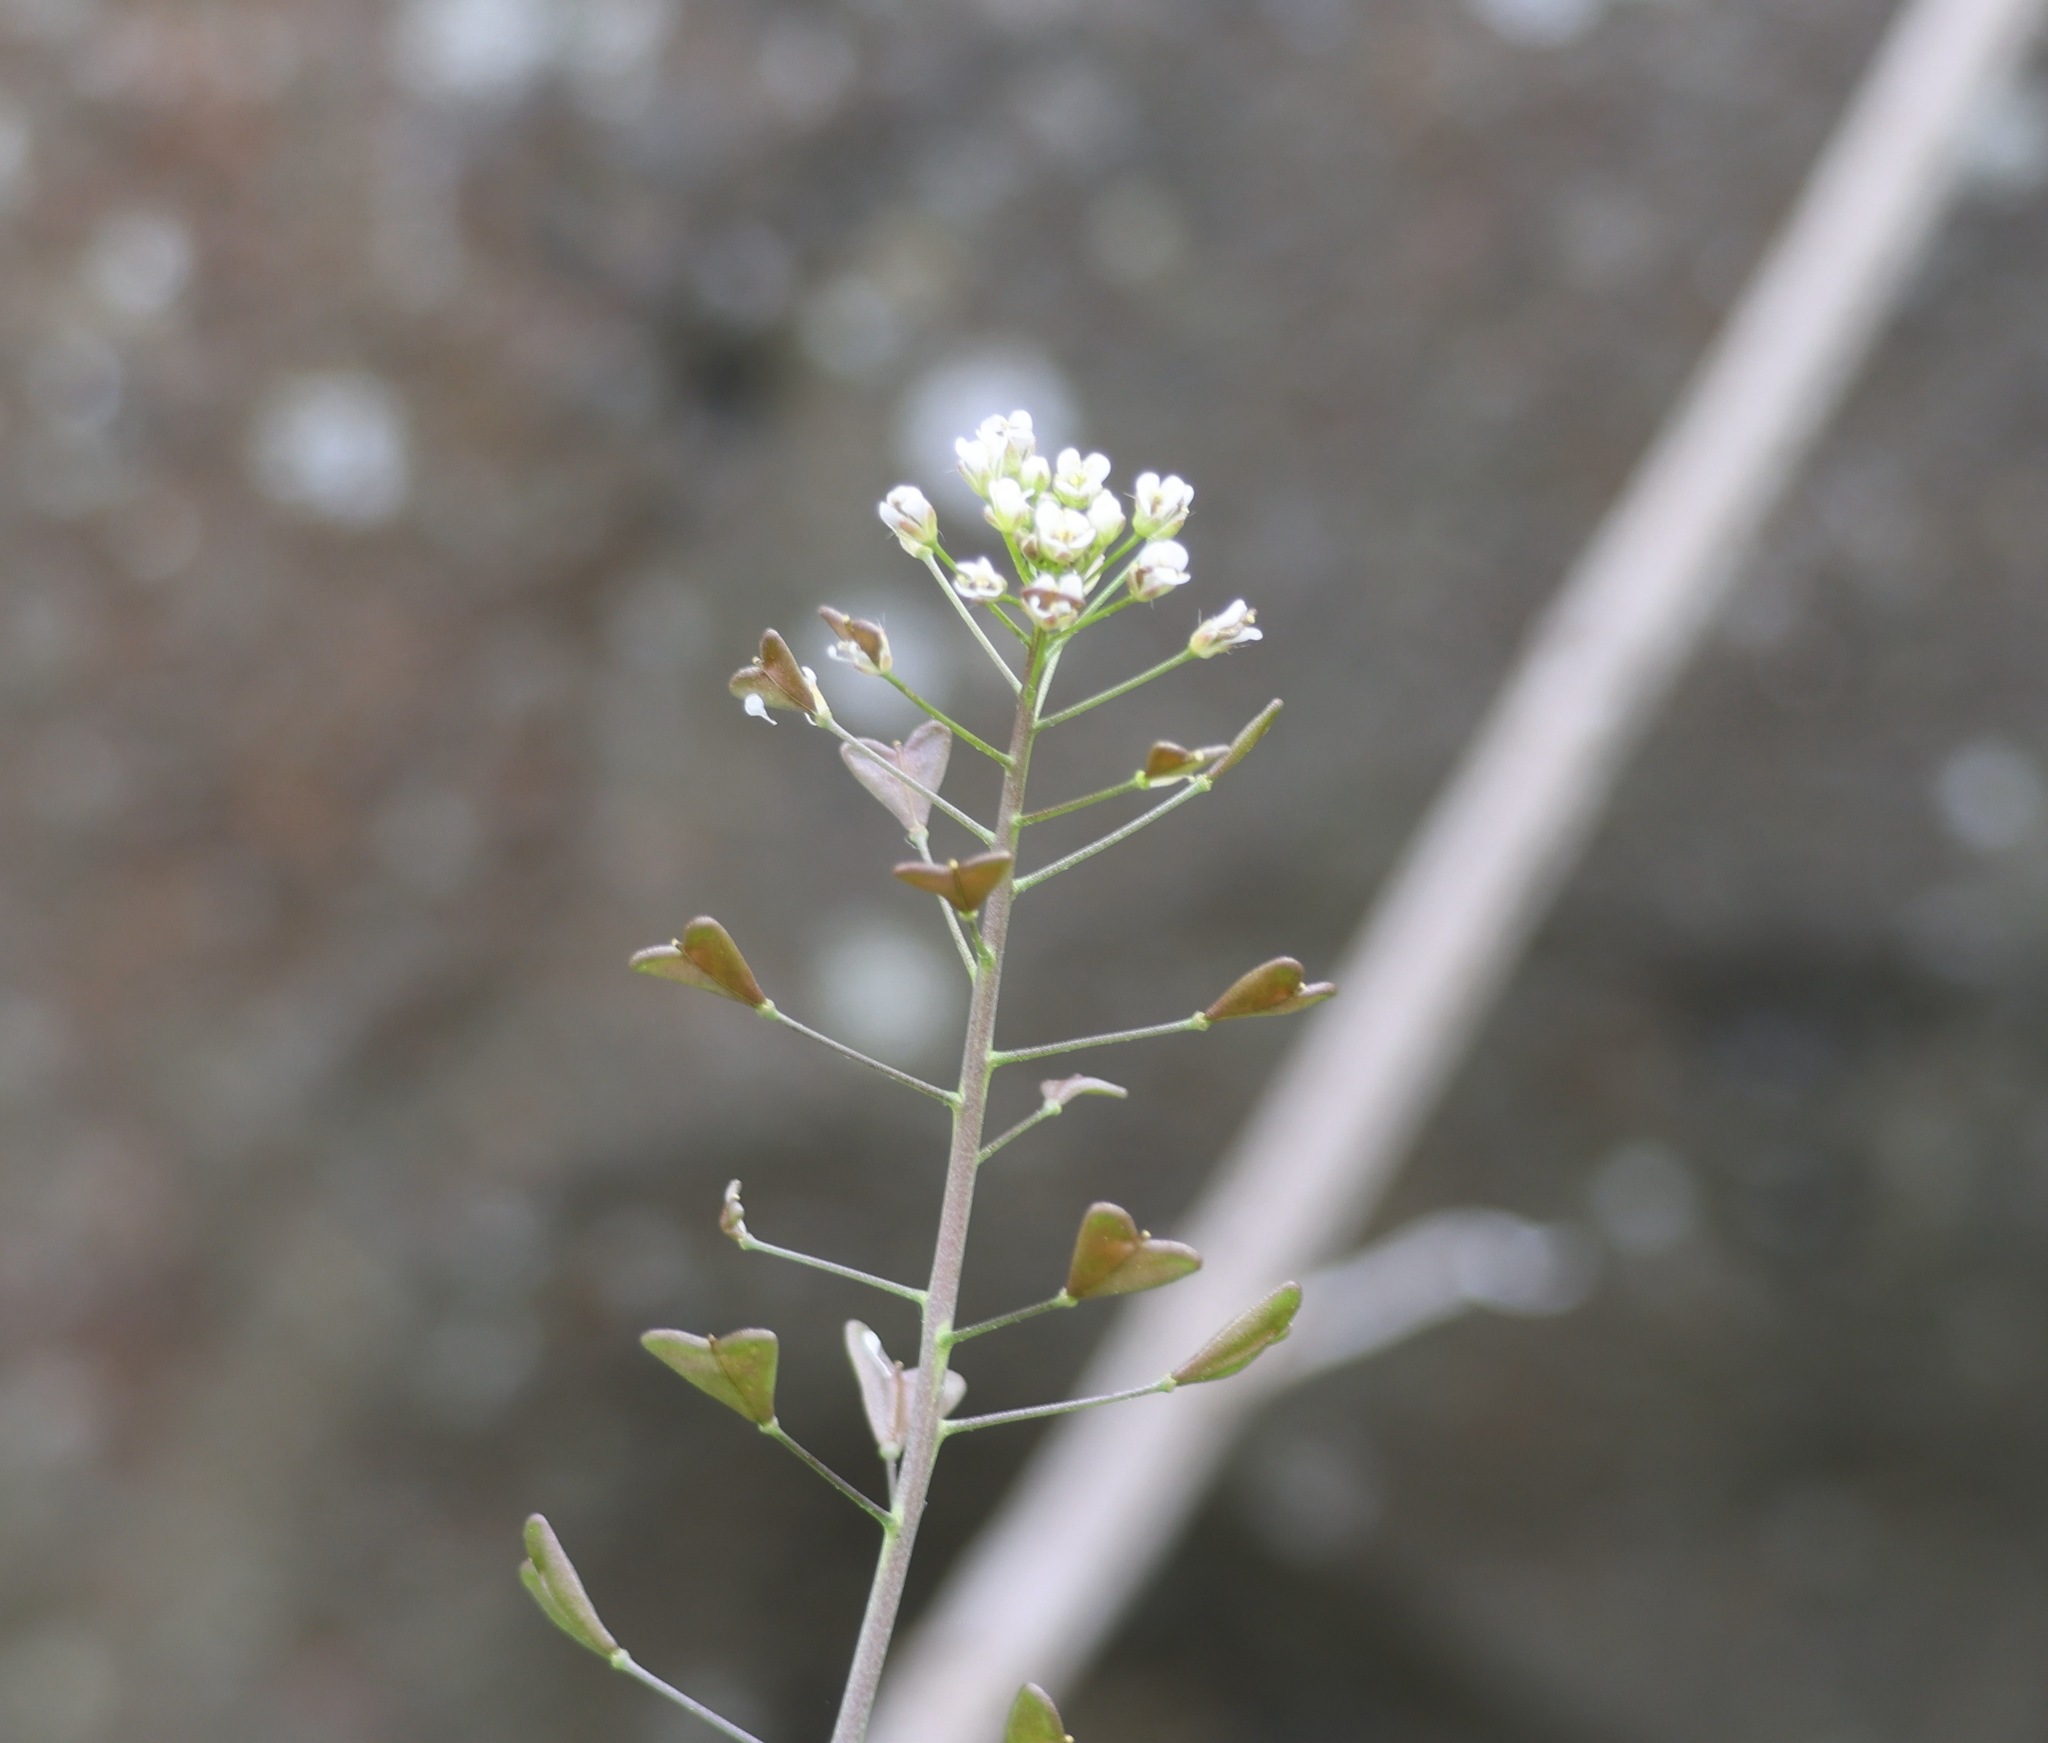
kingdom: Plantae
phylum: Tracheophyta
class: Magnoliopsida
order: Brassicales
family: Brassicaceae
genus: Capsella
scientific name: Capsella bursa-pastoris
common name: Shepherd's purse
